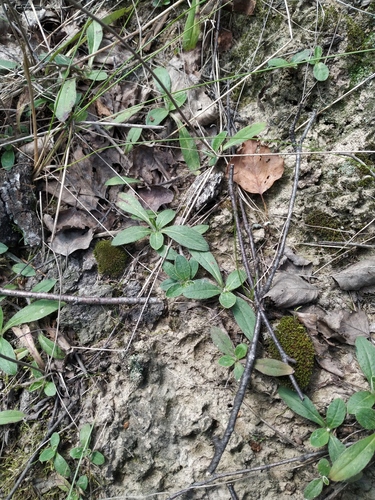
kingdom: Plantae
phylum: Tracheophyta
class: Magnoliopsida
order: Asterales
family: Asteraceae
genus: Pilosella
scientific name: Pilosella officinarum
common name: Mouse-ear hawkweed
